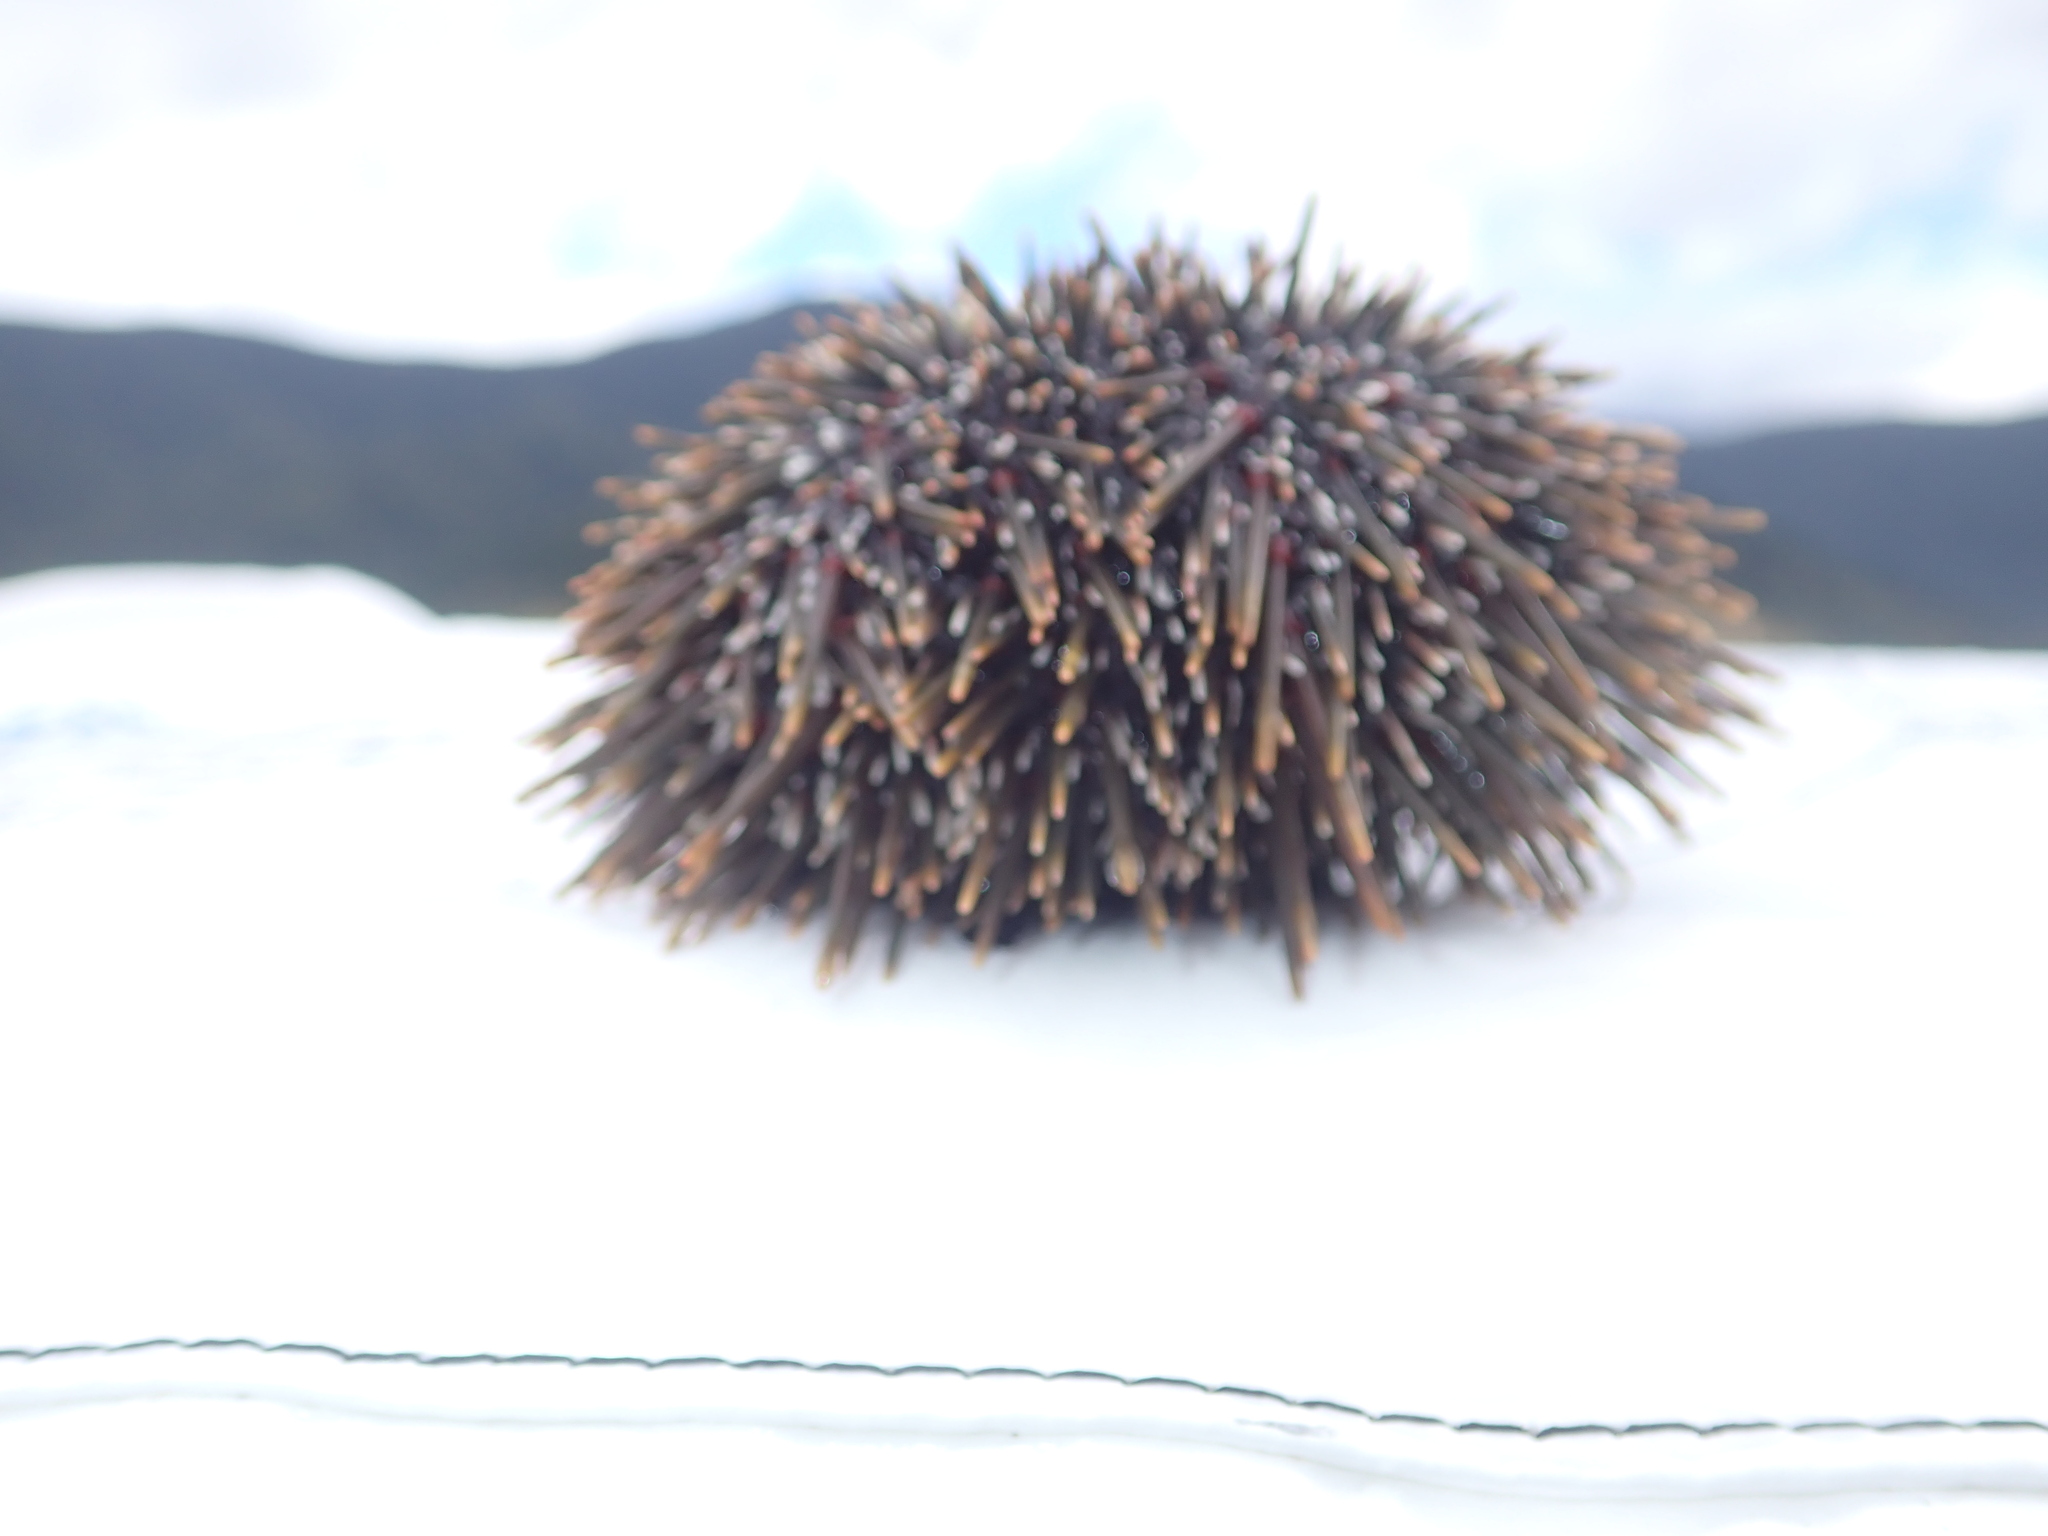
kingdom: Animalia
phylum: Echinodermata
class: Echinoidea
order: Camarodonta
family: Echinometridae
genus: Evechinus
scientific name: Evechinus chloroticus
